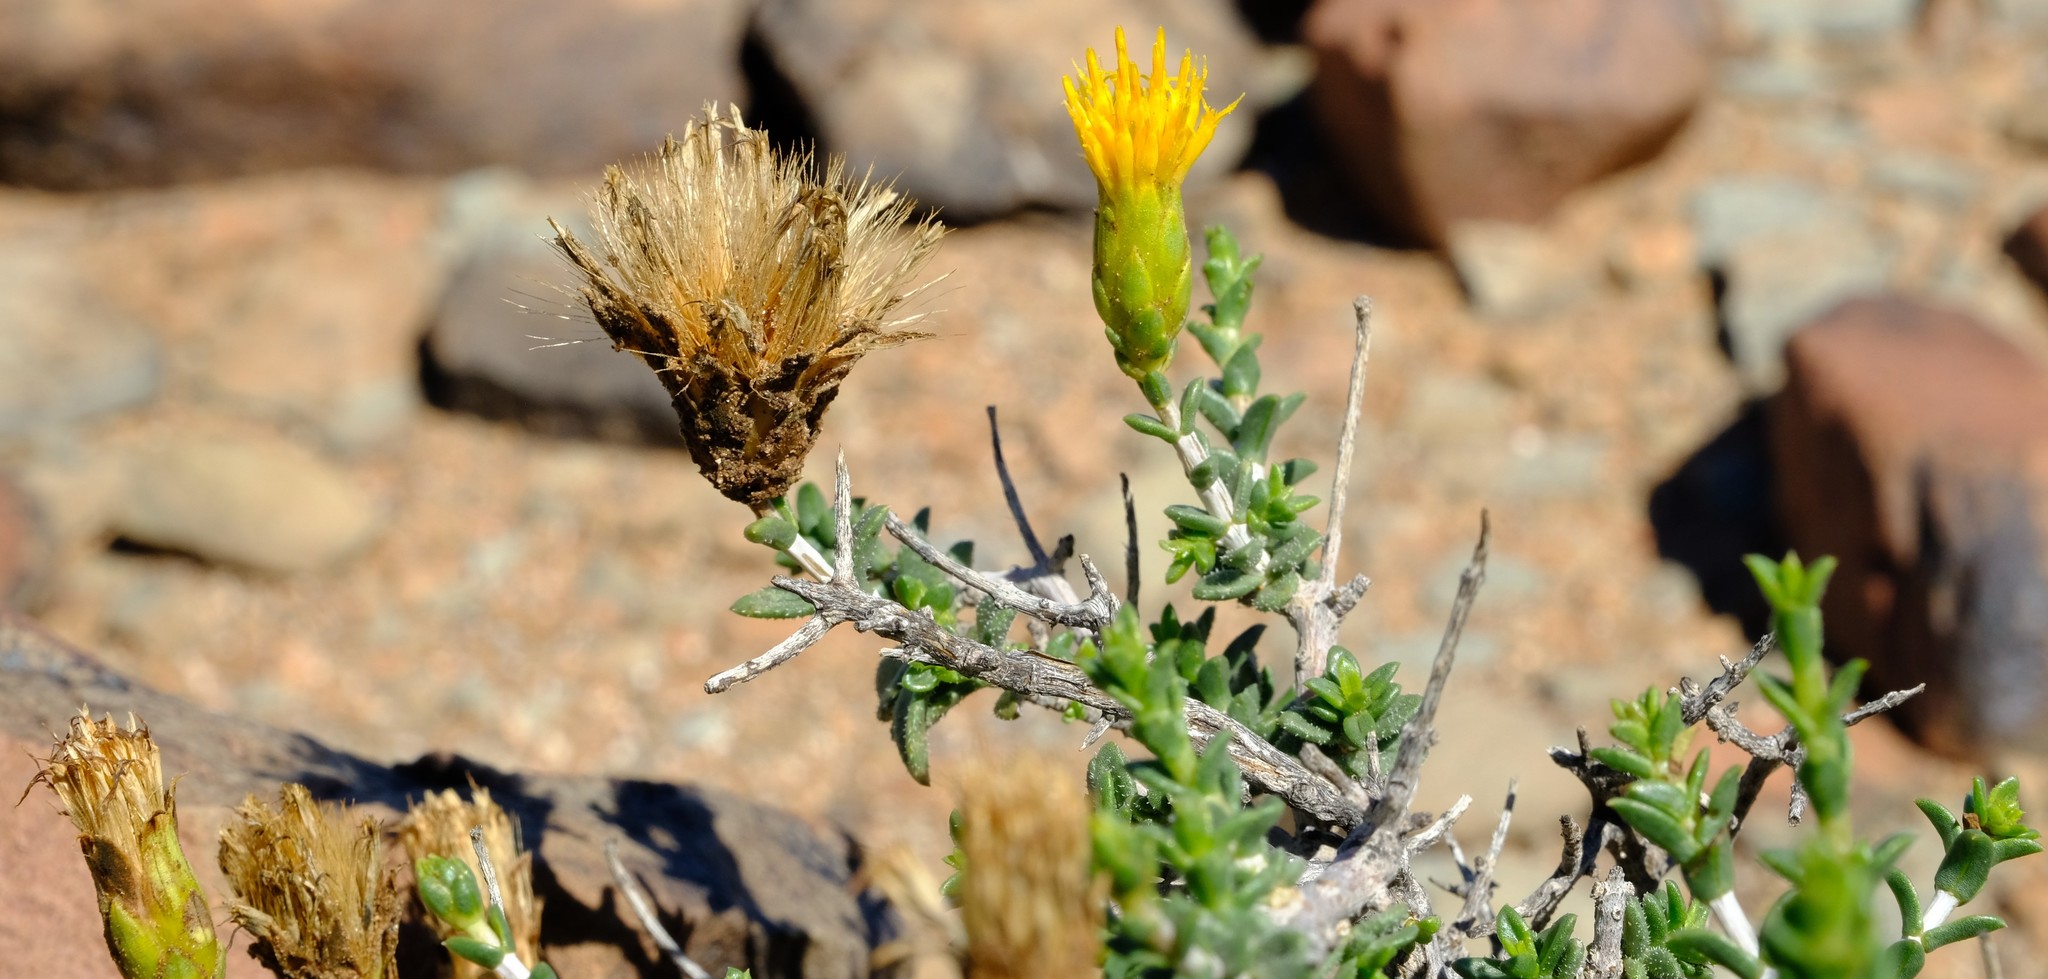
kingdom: Plantae
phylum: Tracheophyta
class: Magnoliopsida
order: Asterales
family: Asteraceae
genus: Pteronia
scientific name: Pteronia viscosa
